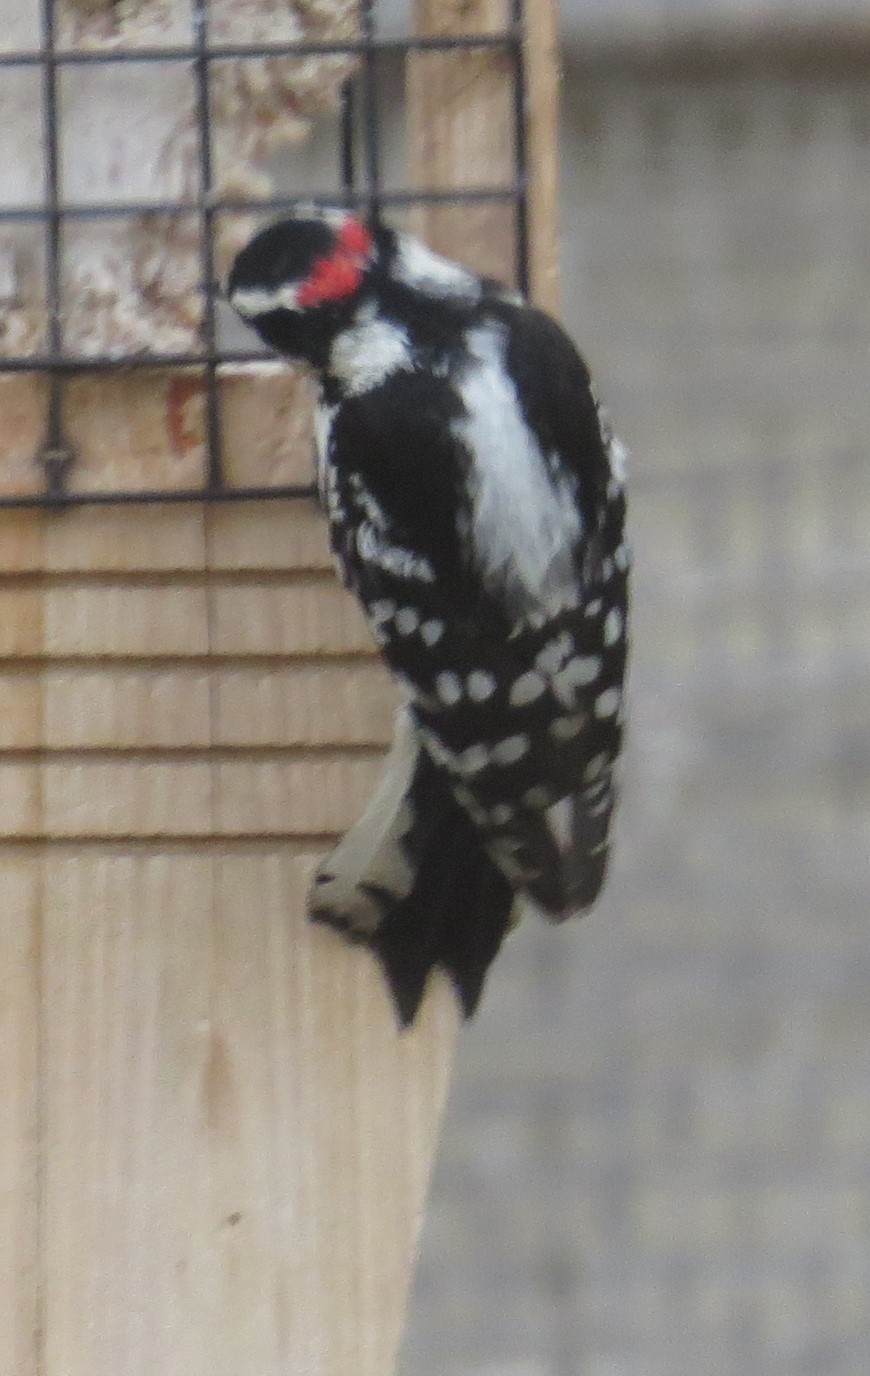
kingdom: Animalia
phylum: Chordata
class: Aves
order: Piciformes
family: Picidae
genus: Dryobates
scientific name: Dryobates pubescens
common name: Downy woodpecker
